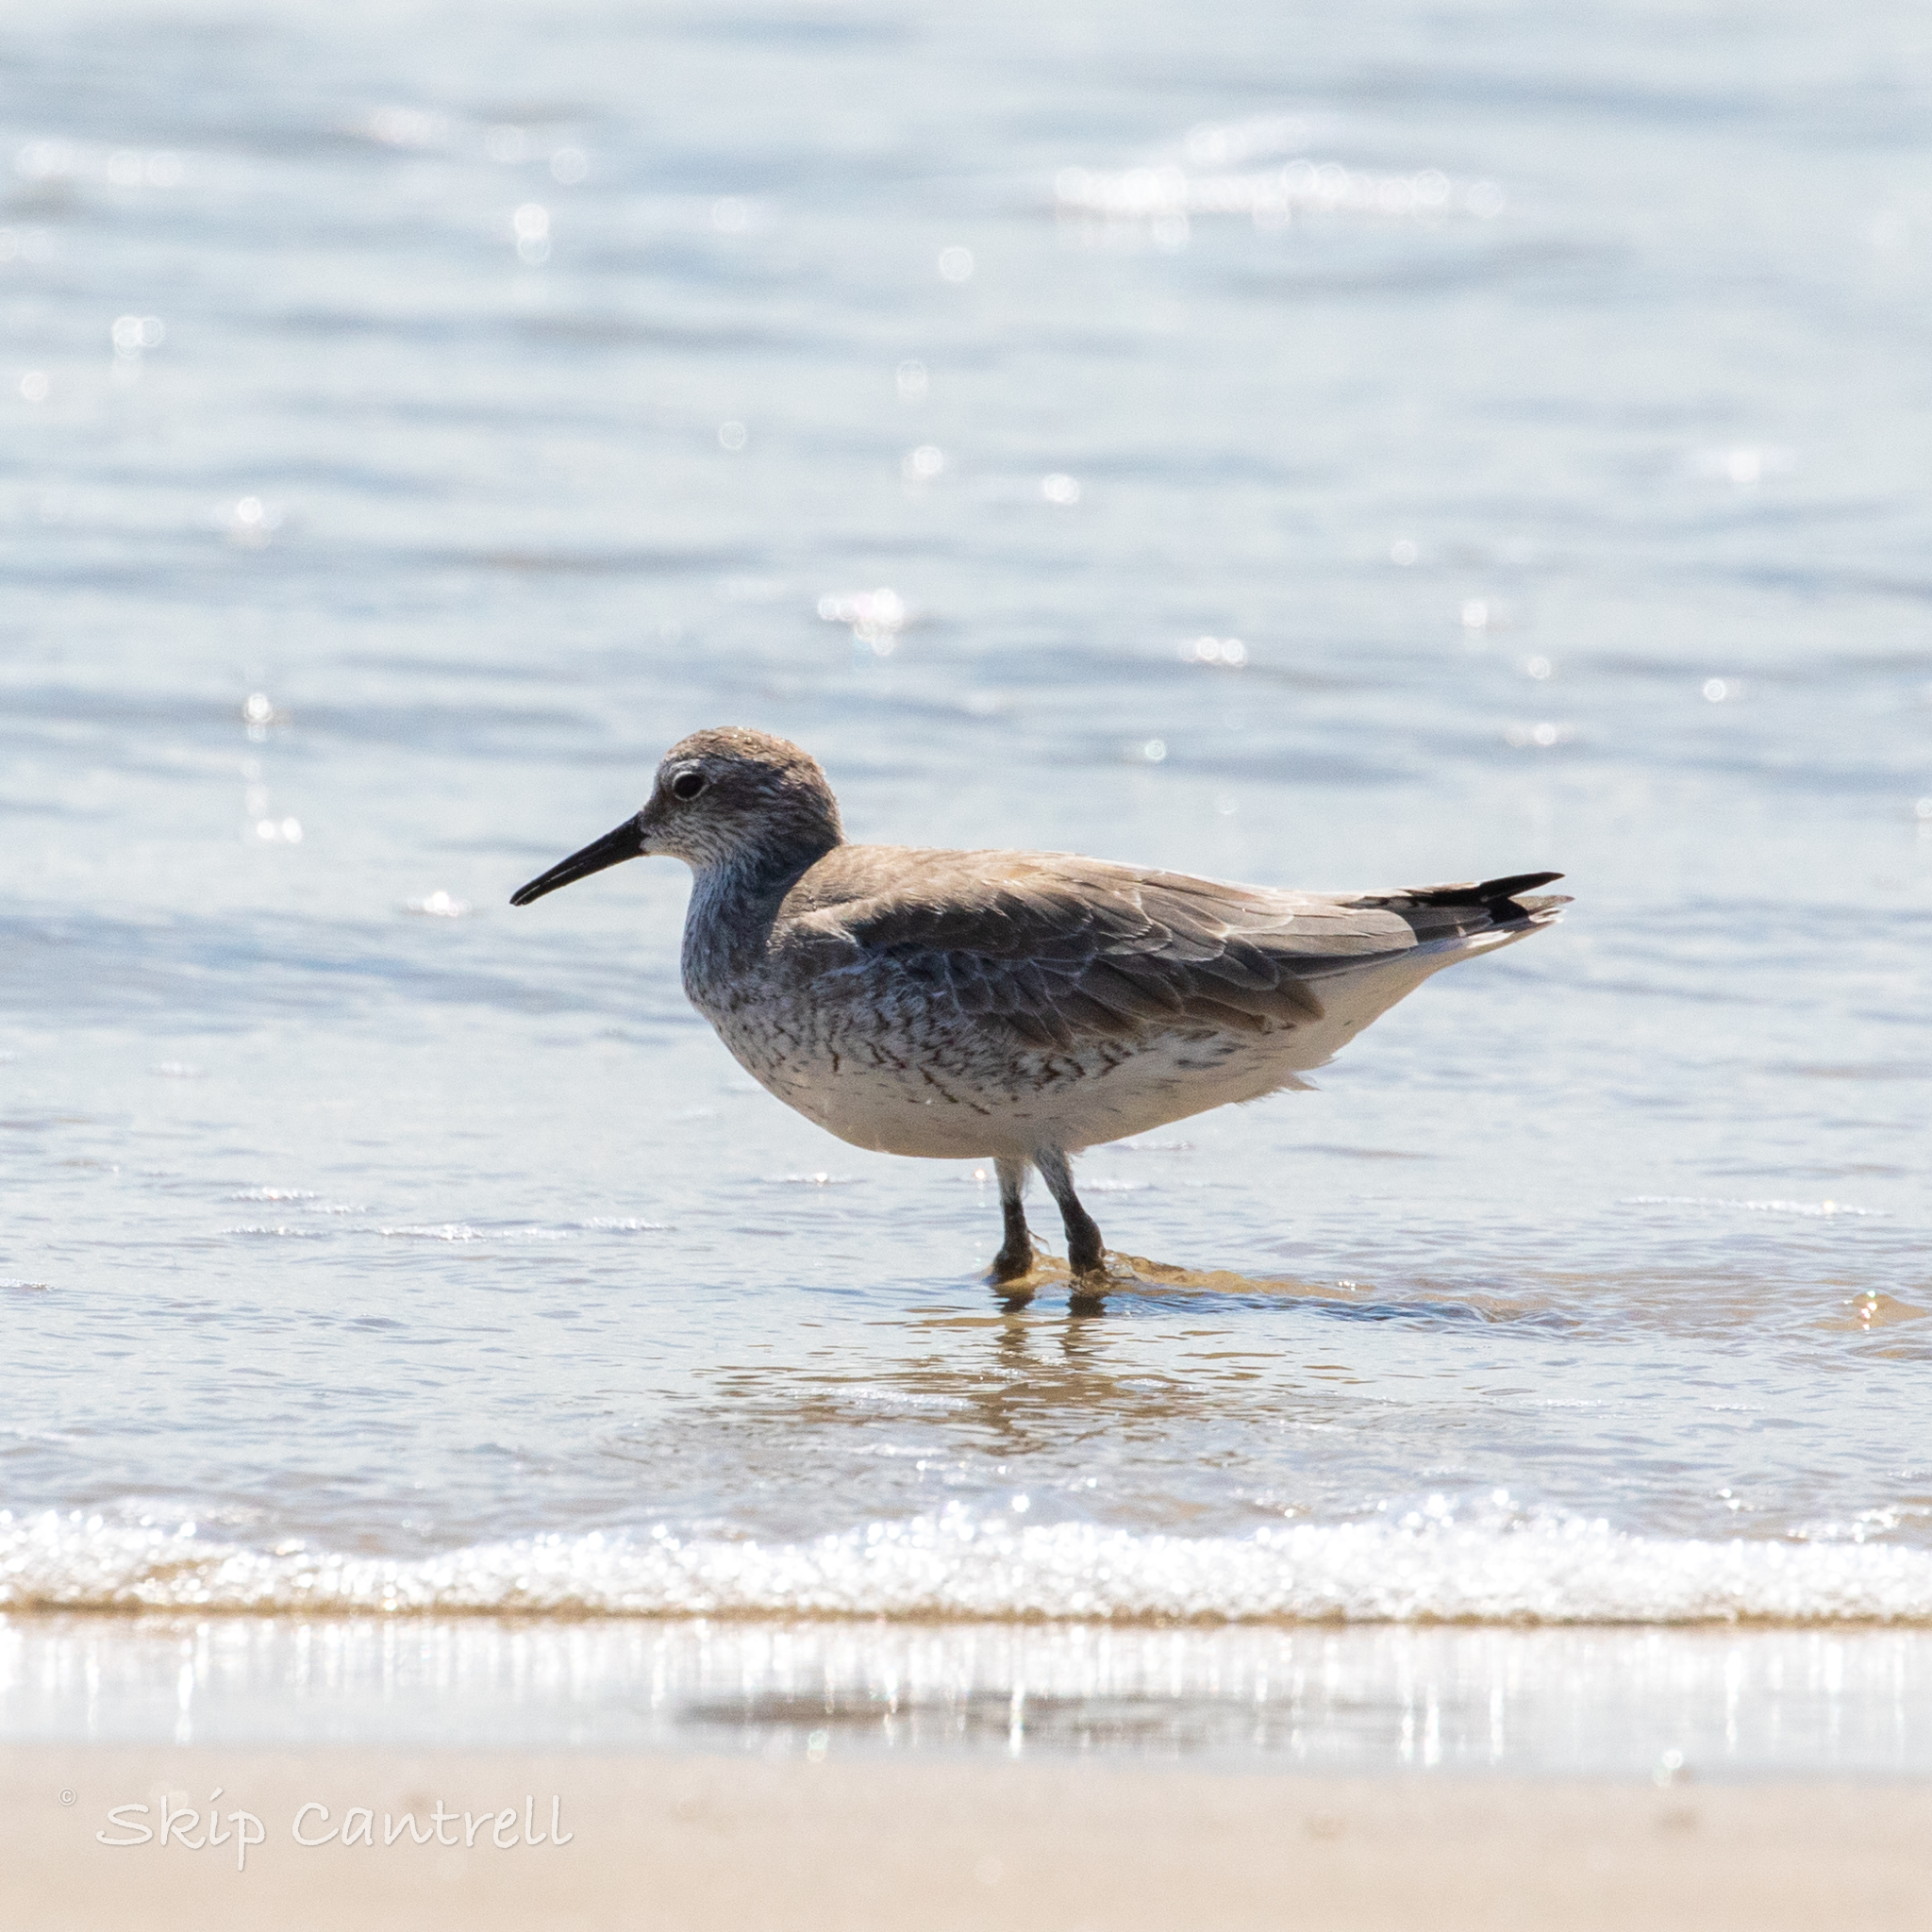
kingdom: Animalia
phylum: Chordata
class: Aves
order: Charadriiformes
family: Scolopacidae
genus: Calidris
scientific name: Calidris canutus
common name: Red knot
